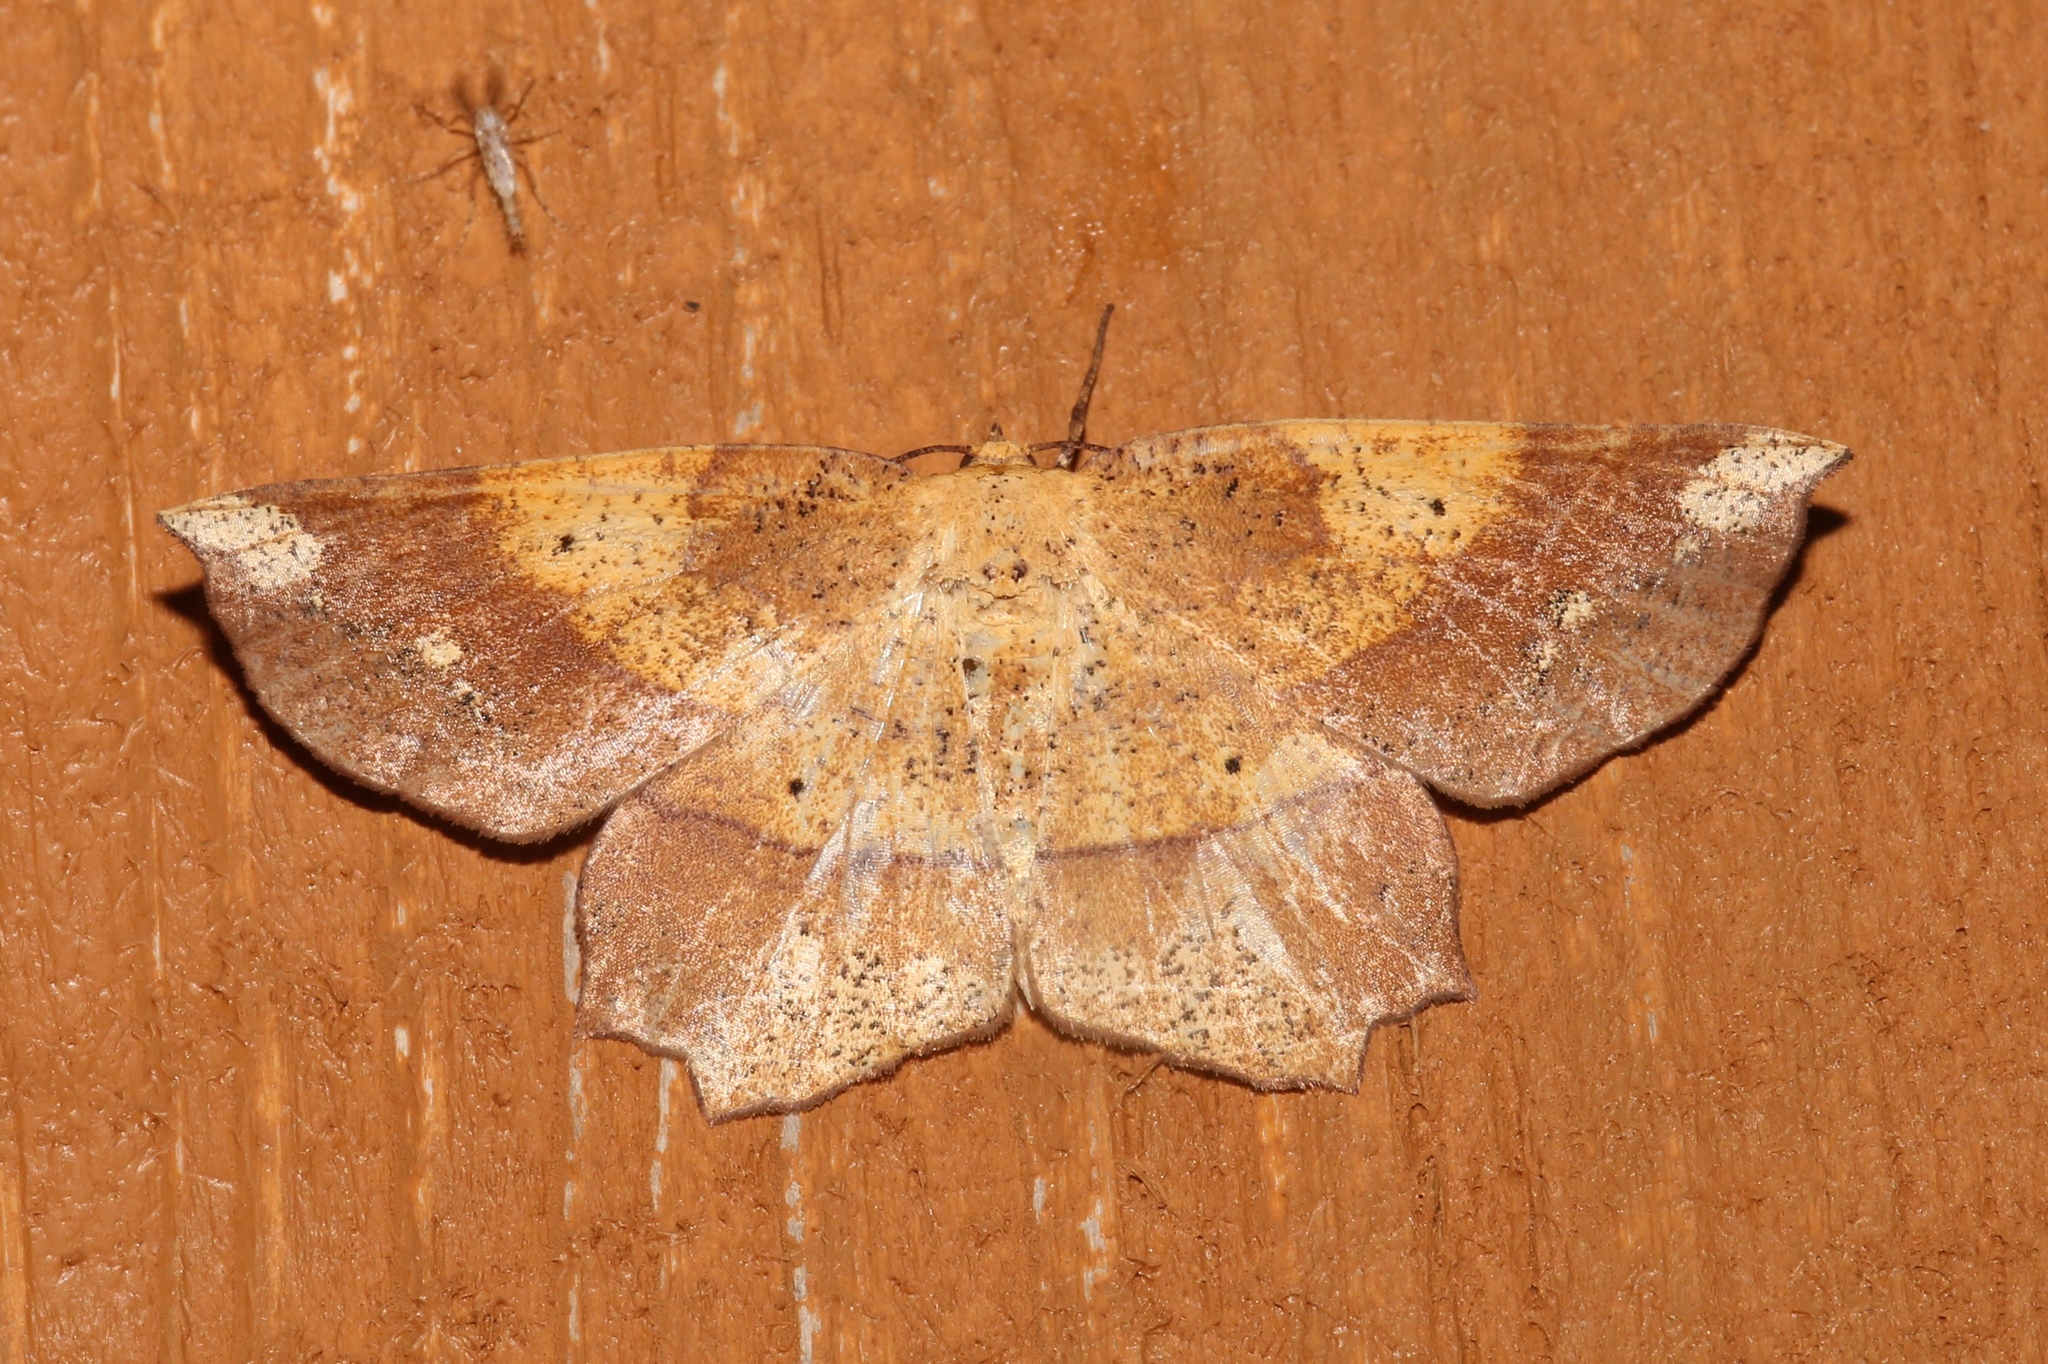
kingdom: Animalia
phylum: Arthropoda
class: Insecta
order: Lepidoptera
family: Geometridae
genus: Euchlaena
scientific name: Euchlaena amoenaria
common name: Deep yellow euchlaena
